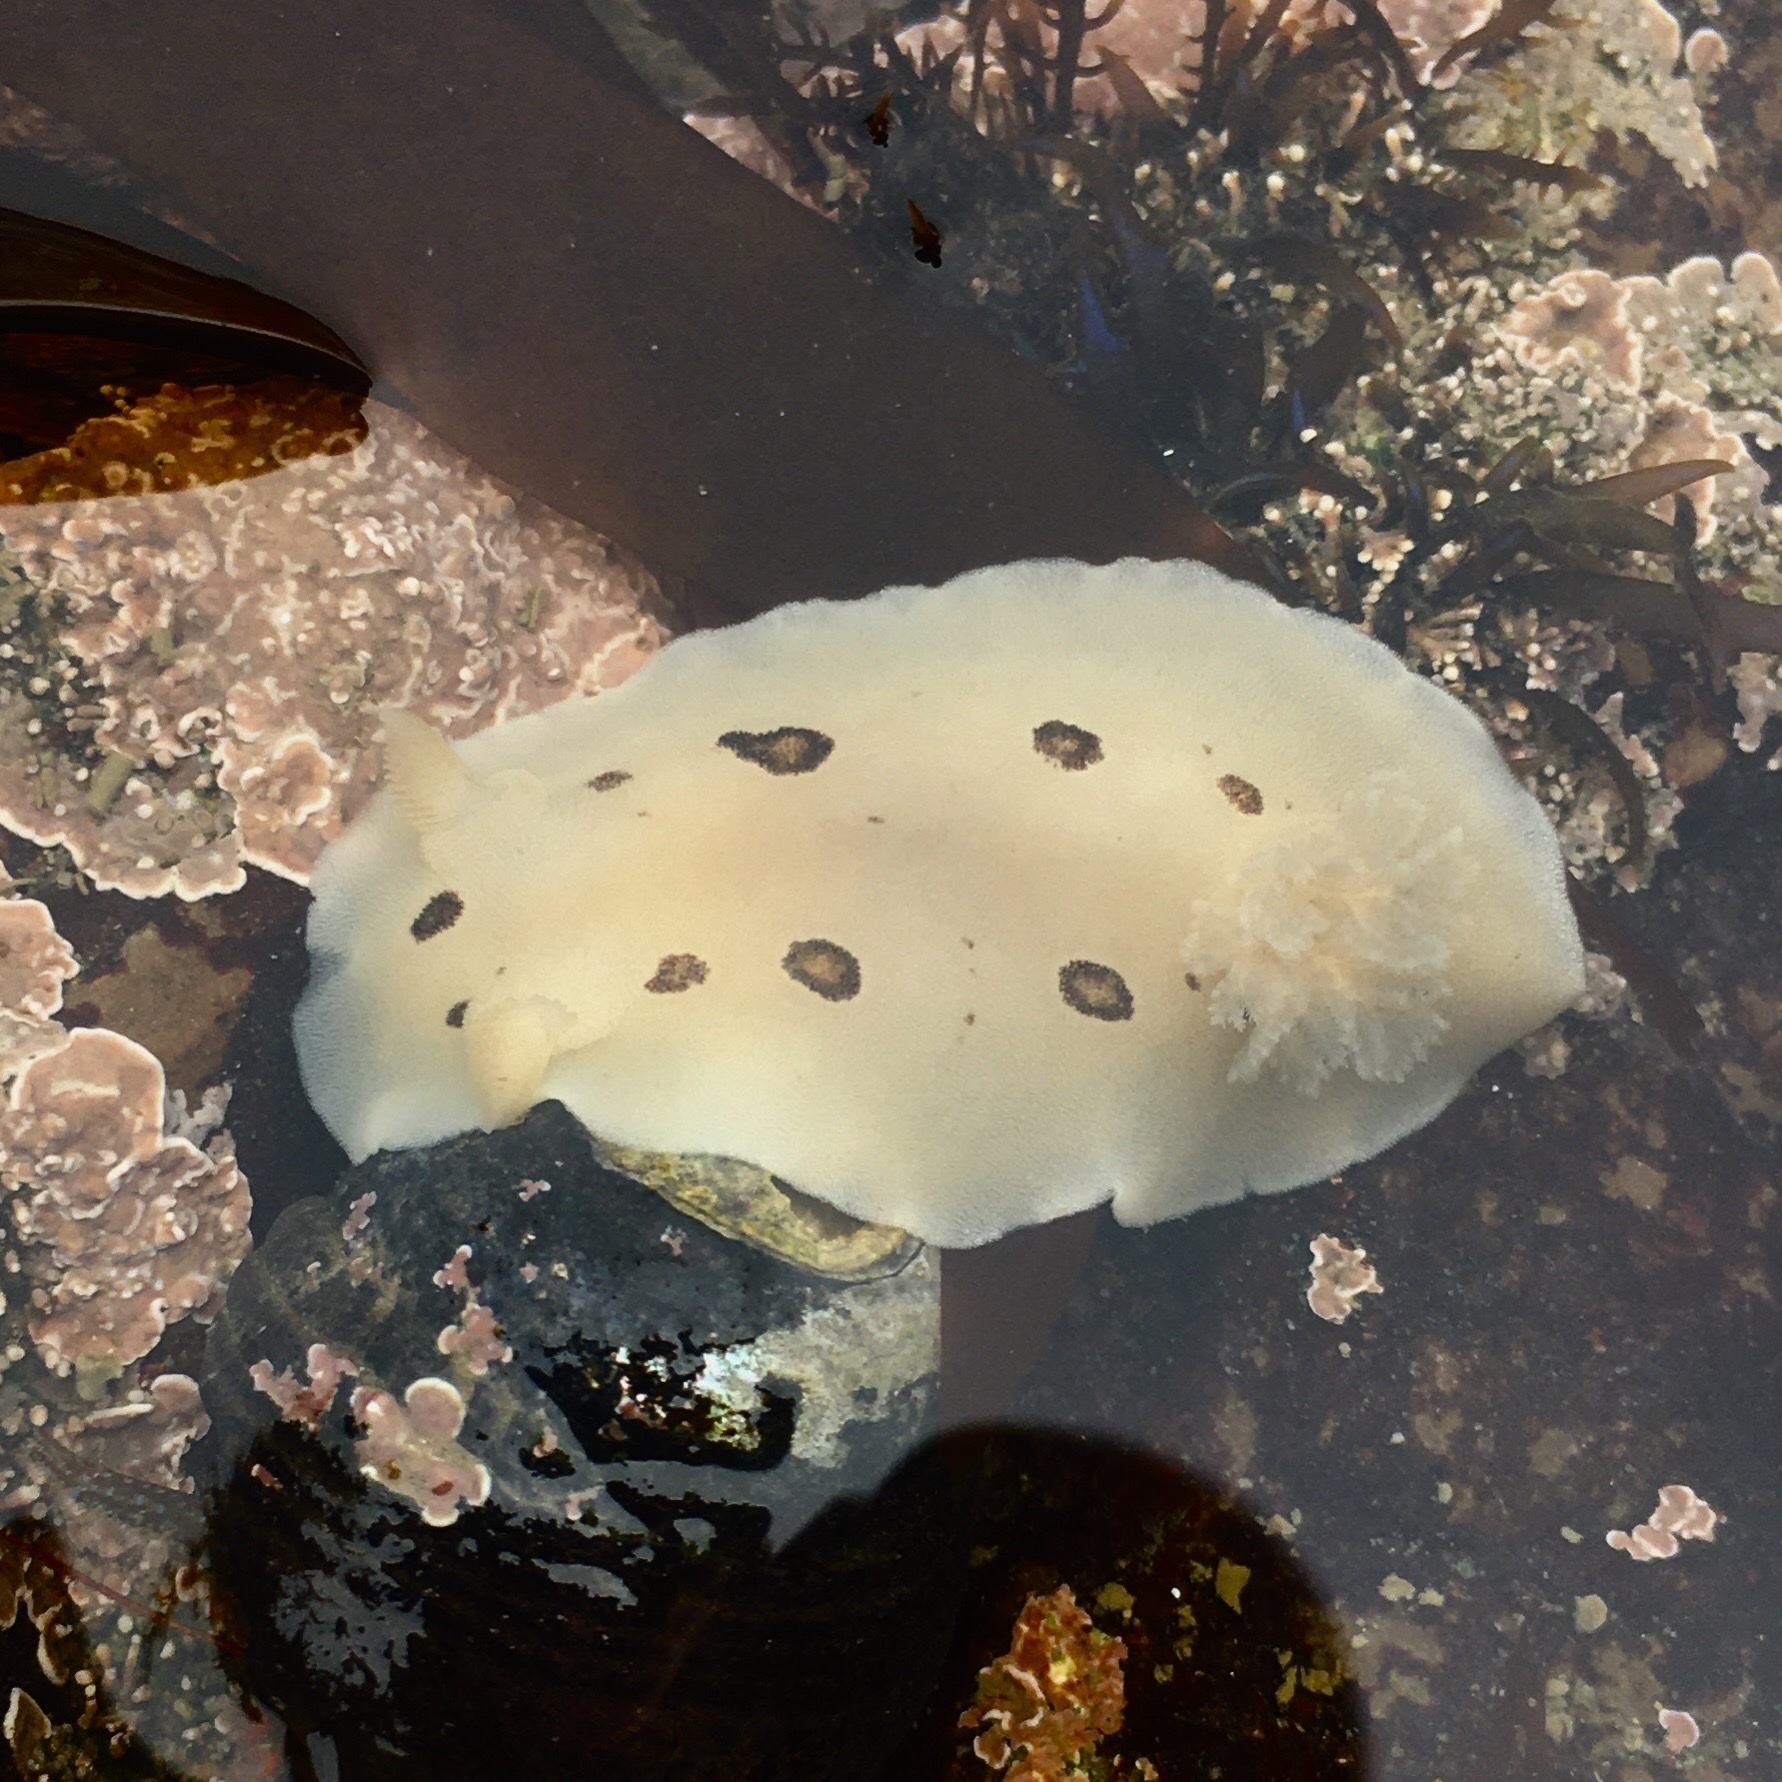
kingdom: Animalia
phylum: Mollusca
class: Gastropoda
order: Nudibranchia
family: Discodorididae
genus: Diaulula
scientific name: Diaulula sandiegensis
